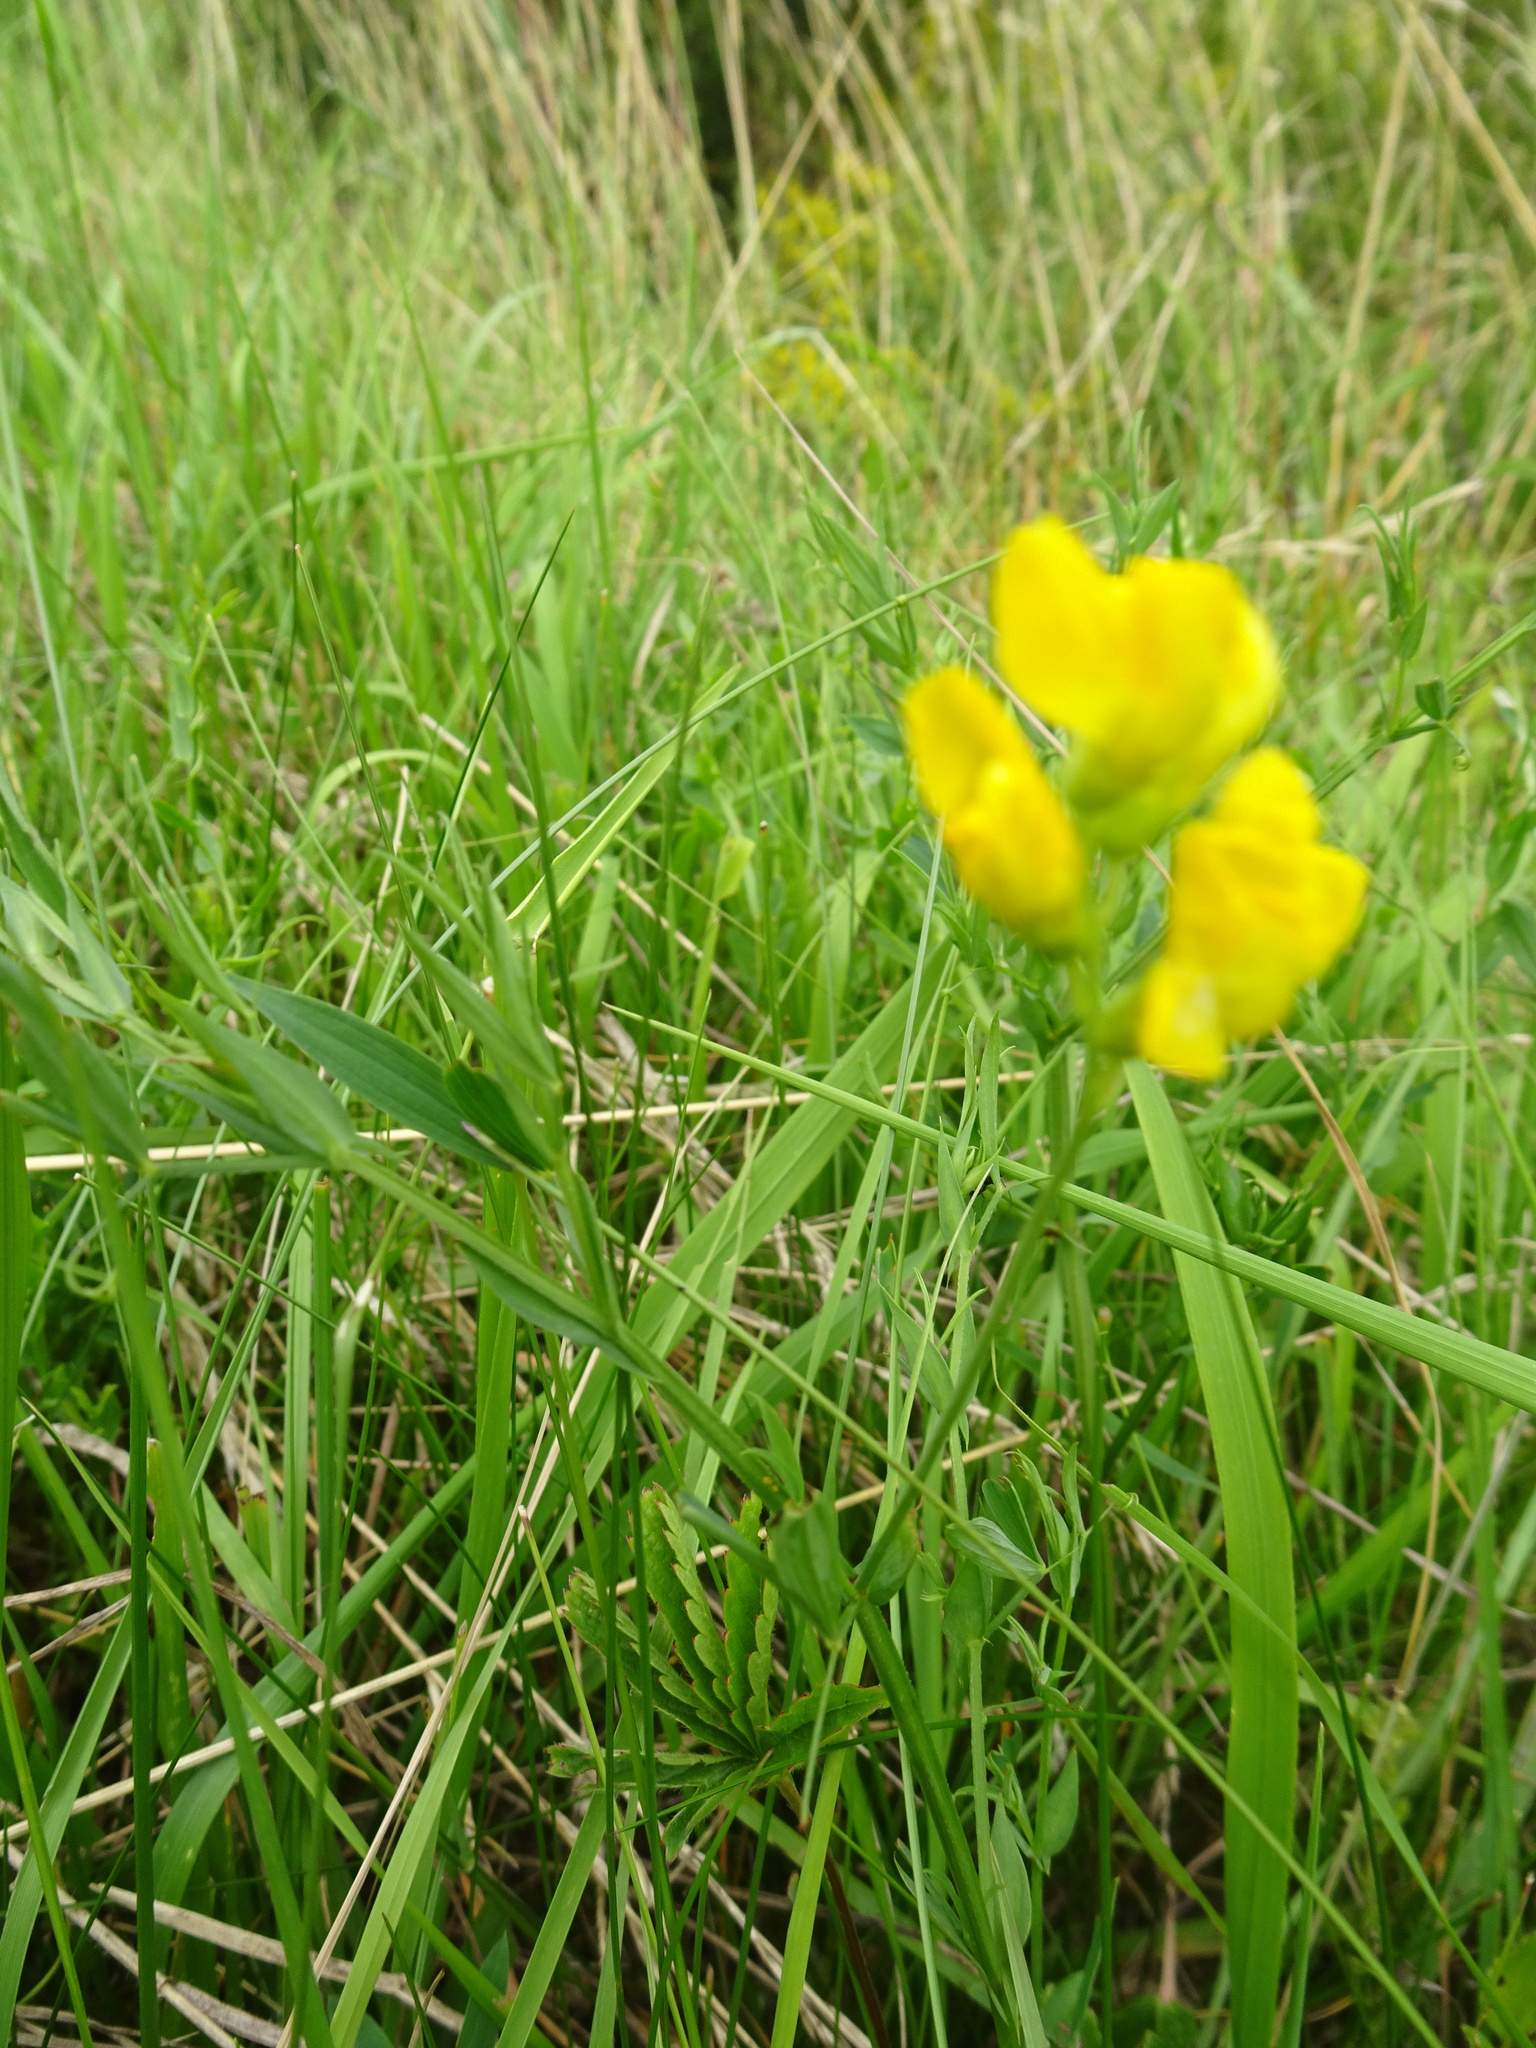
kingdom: Plantae
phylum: Tracheophyta
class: Magnoliopsida
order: Fabales
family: Fabaceae
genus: Lathyrus
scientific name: Lathyrus pratensis
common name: Meadow vetchling
